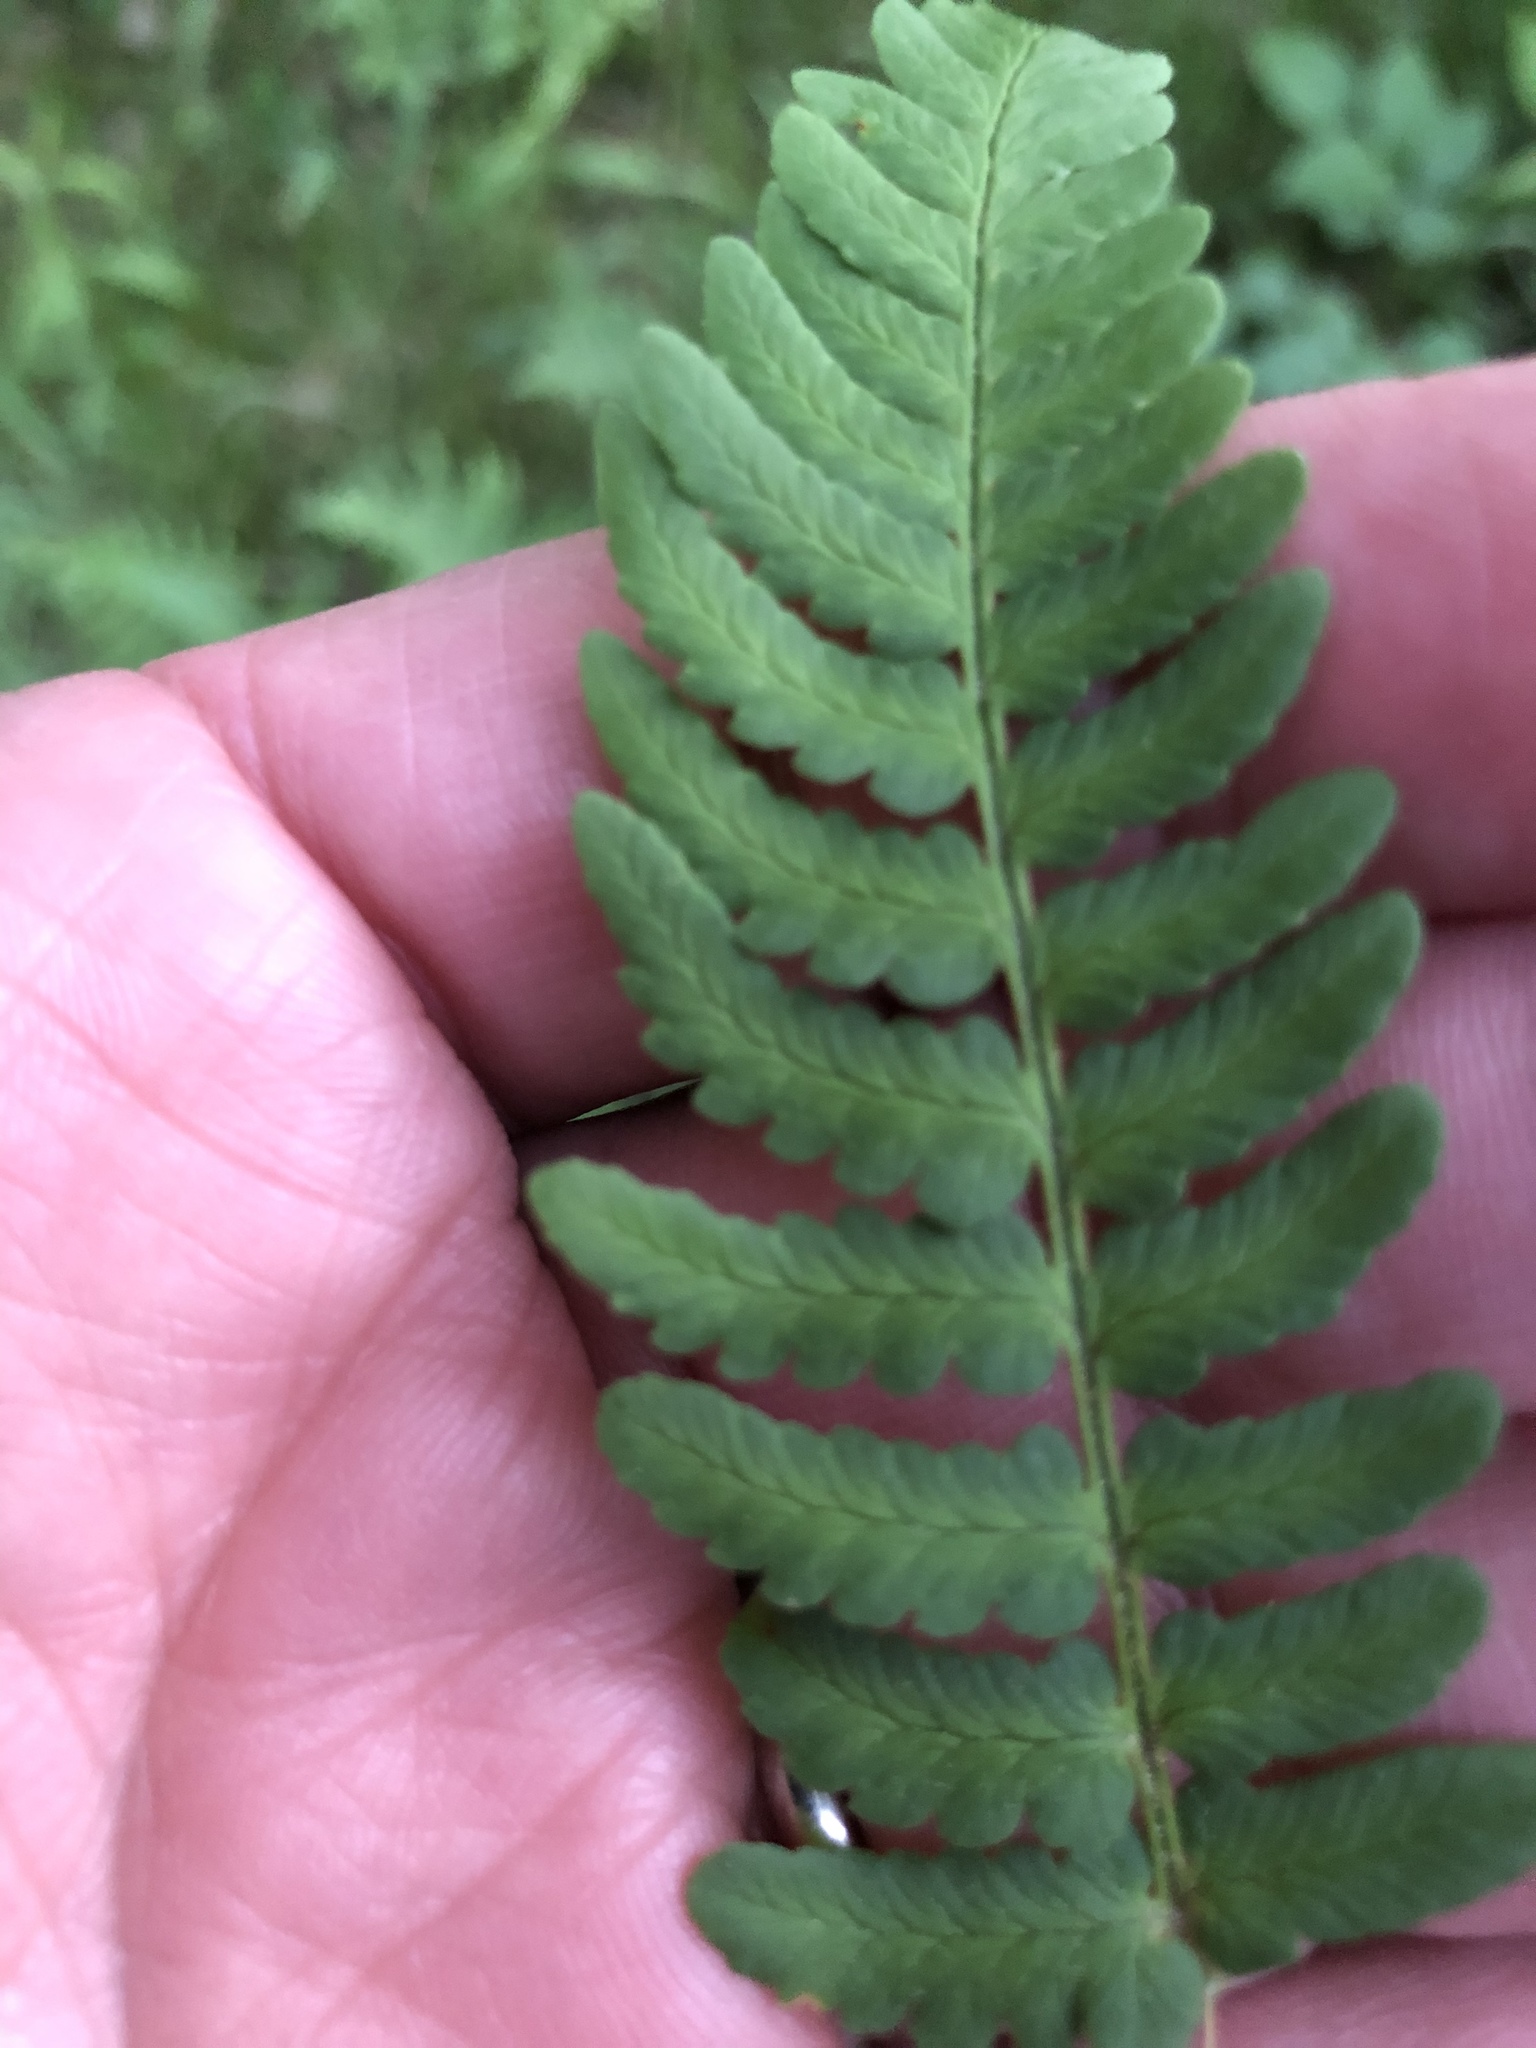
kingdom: Plantae
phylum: Tracheophyta
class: Polypodiopsida
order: Polypodiales
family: Dryopteridaceae
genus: Dryopteris
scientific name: Dryopteris marginalis
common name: Marginal wood fern
